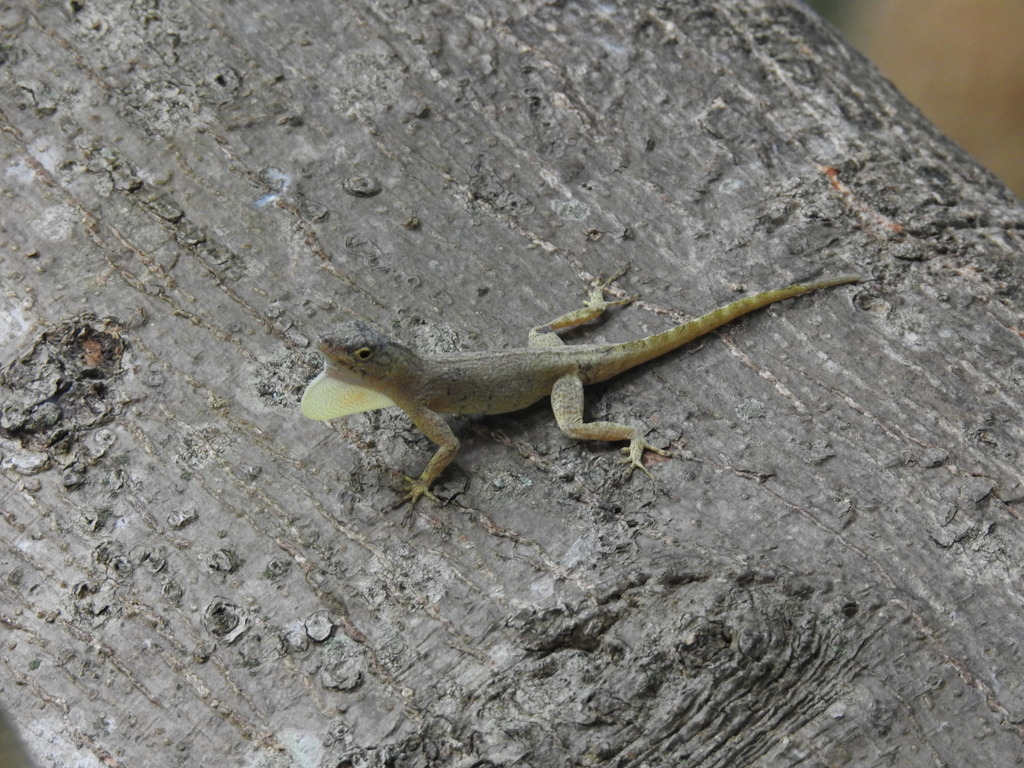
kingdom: Animalia
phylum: Chordata
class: Squamata
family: Dactyloidae
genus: Anolis
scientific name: Anolis distichus
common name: Bark anole
